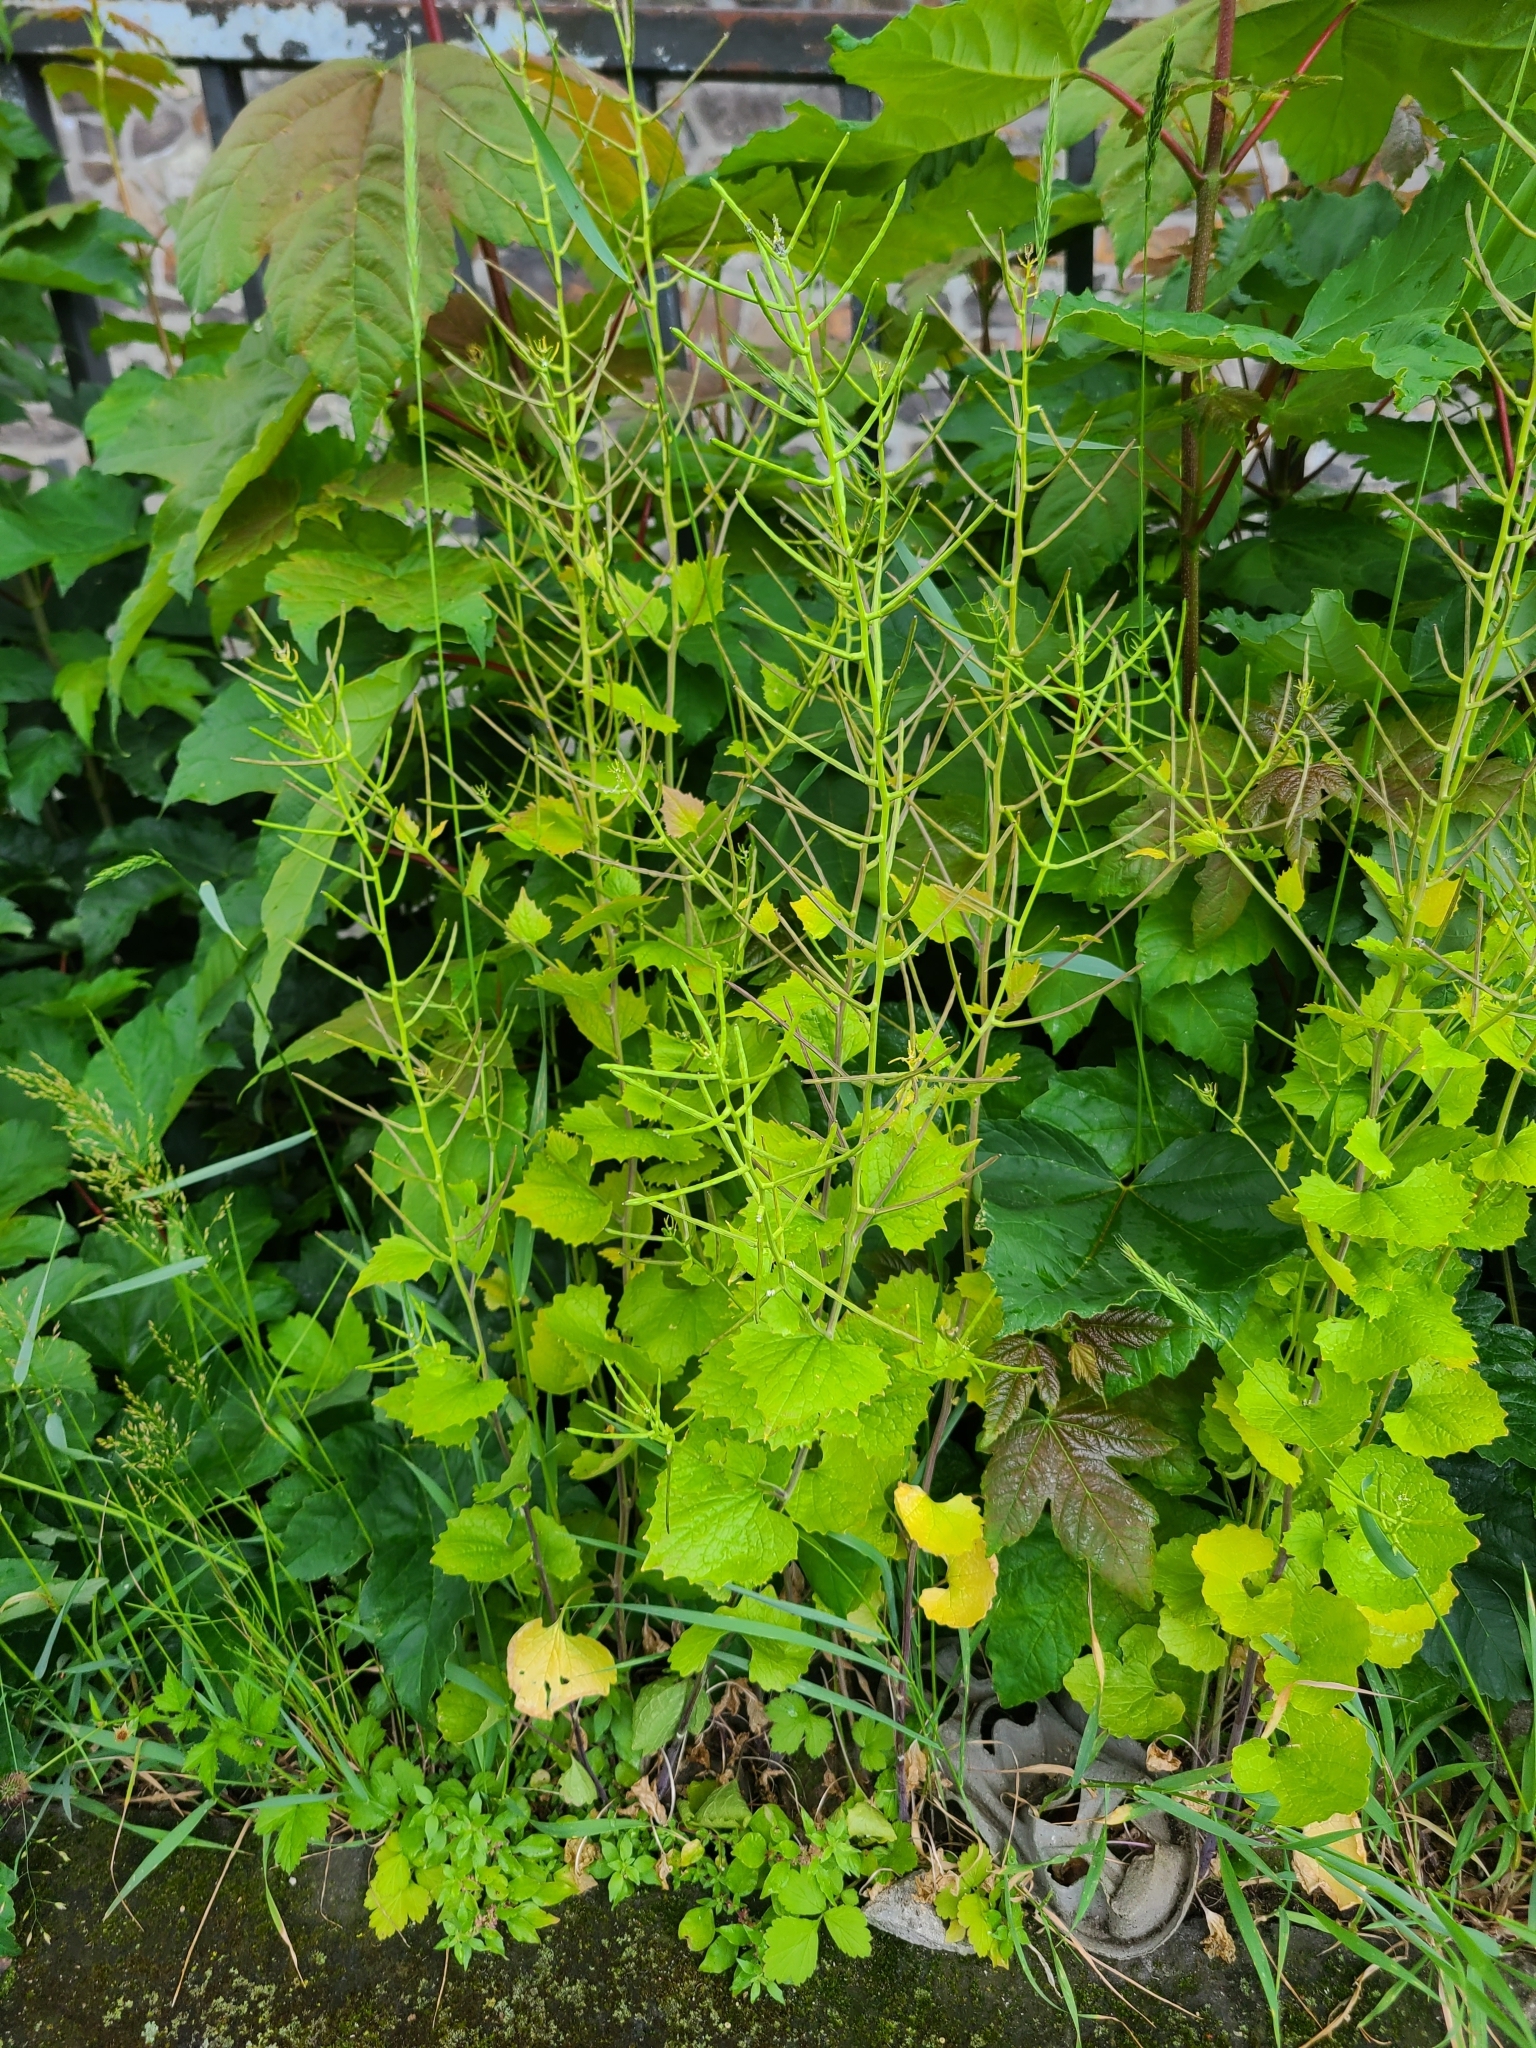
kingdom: Plantae
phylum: Tracheophyta
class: Magnoliopsida
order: Brassicales
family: Brassicaceae
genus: Alliaria
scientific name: Alliaria petiolata
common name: Garlic mustard
